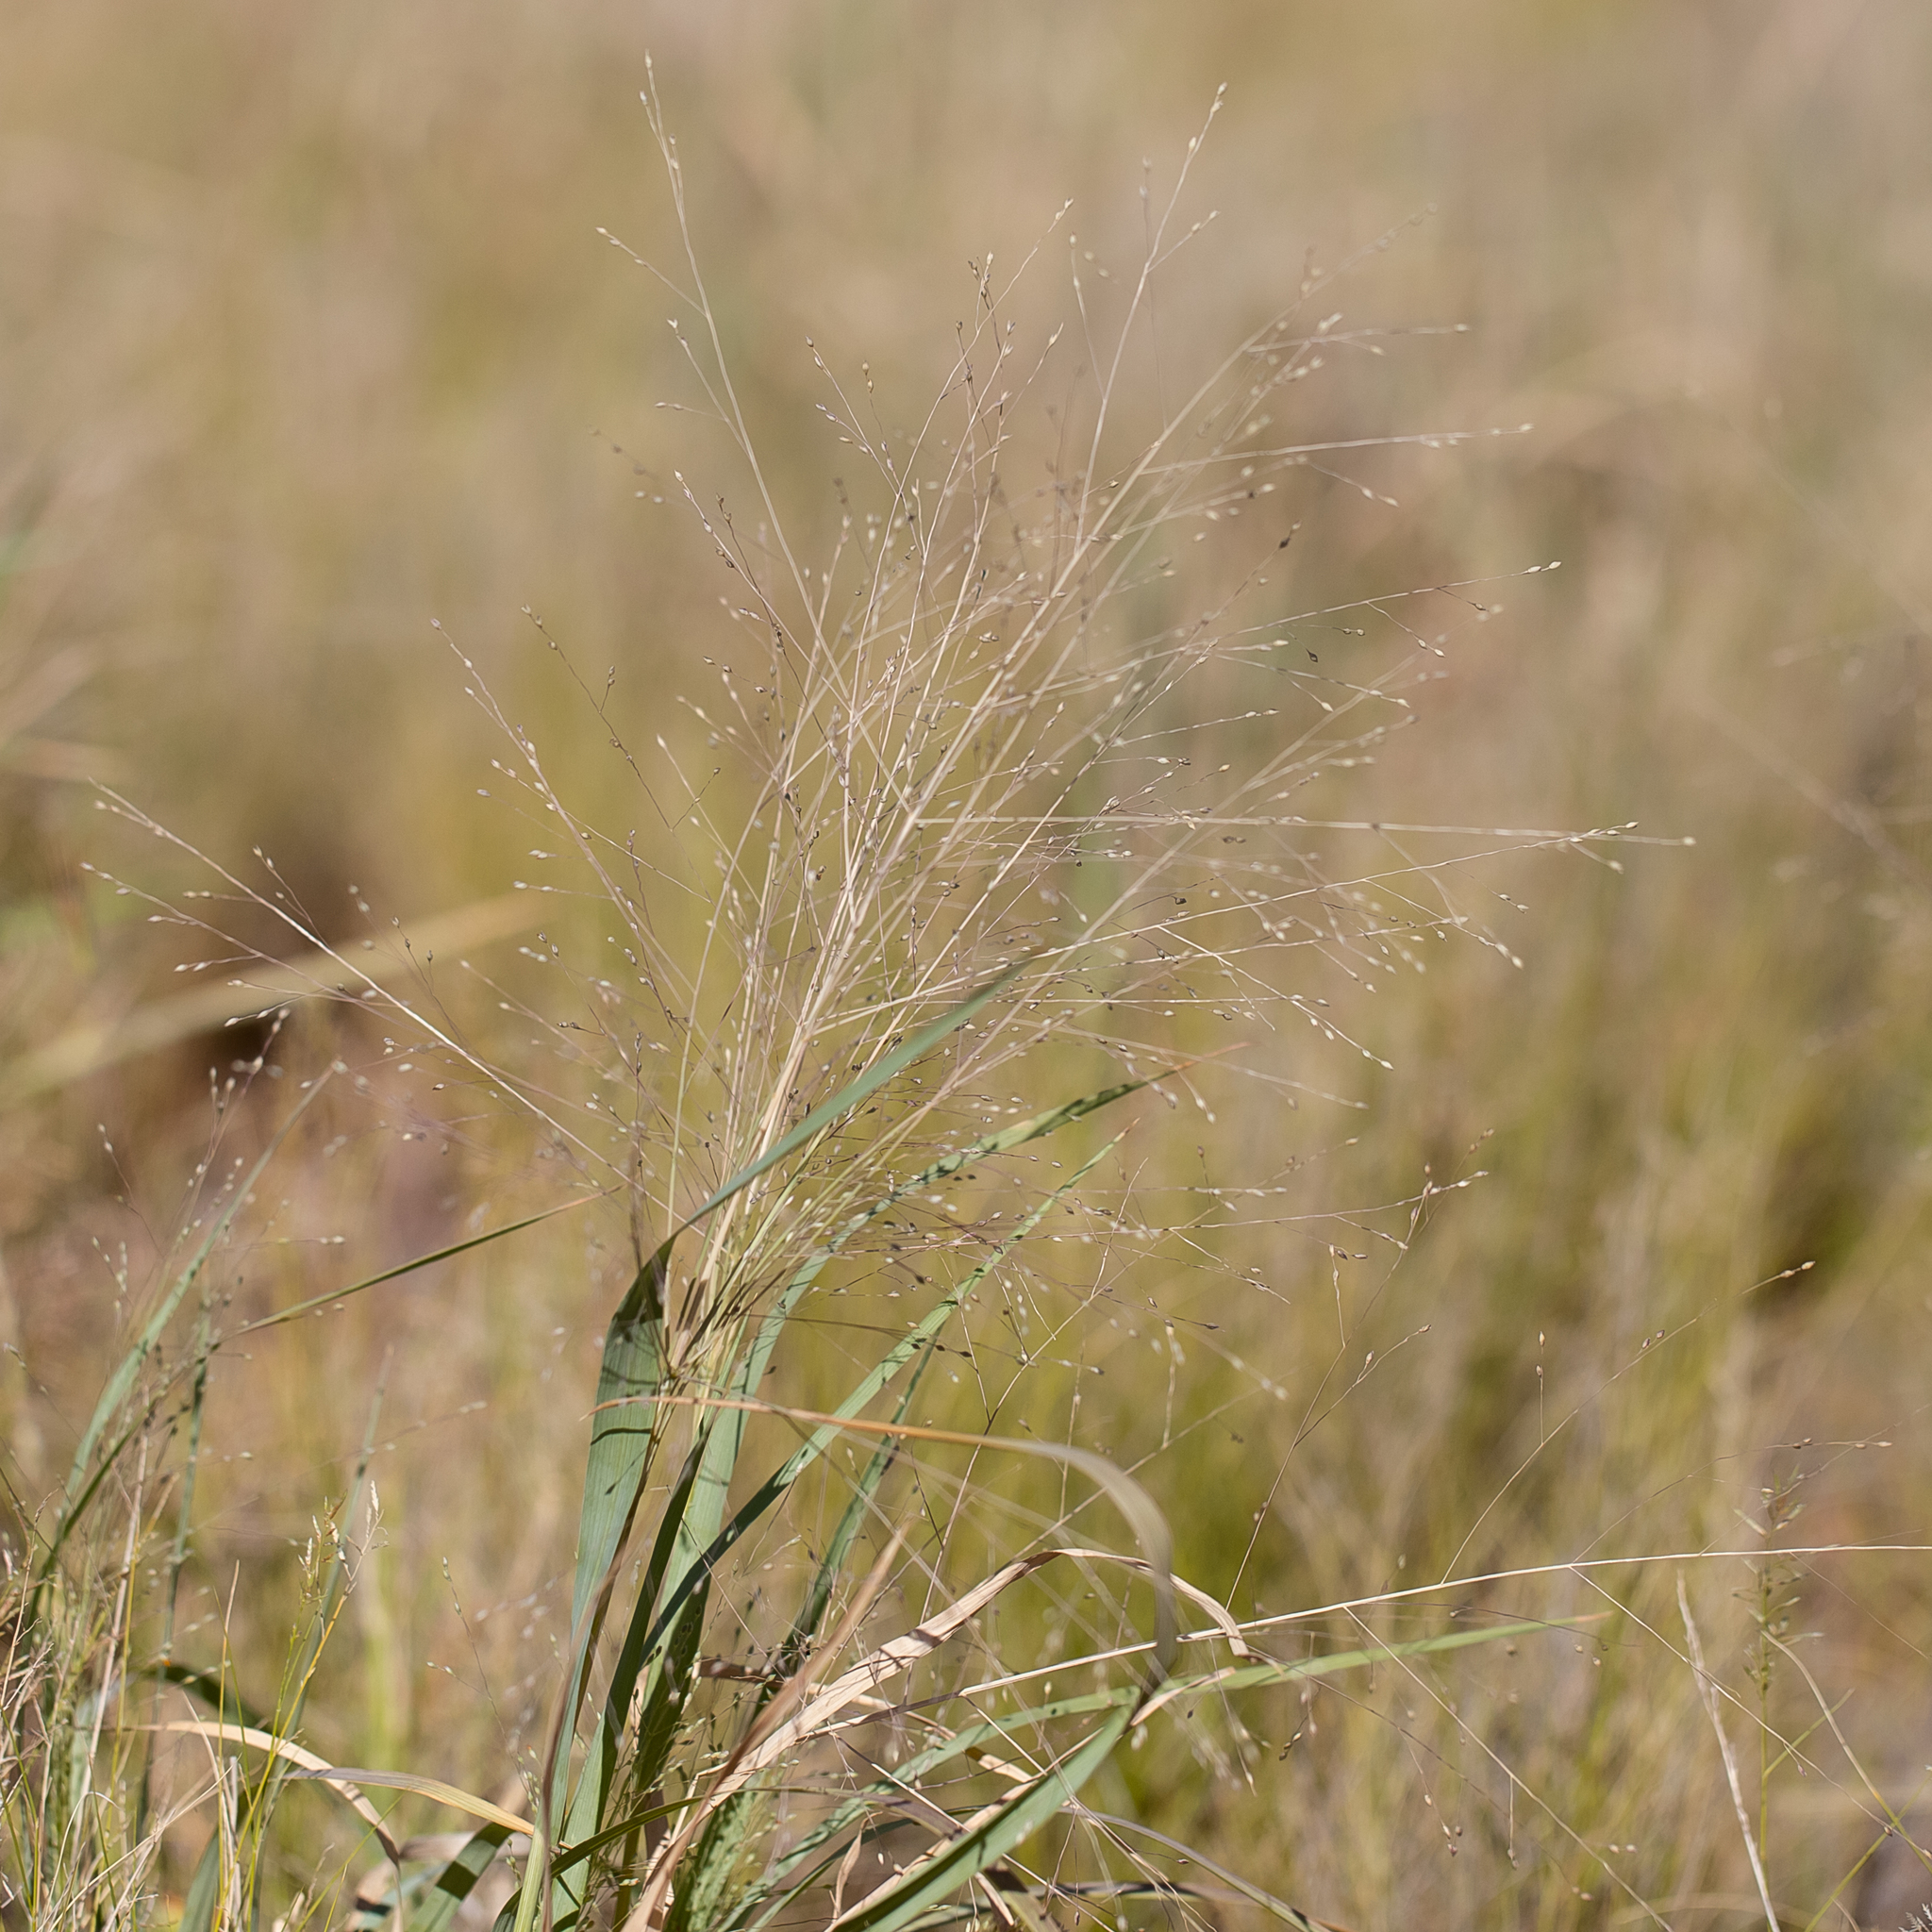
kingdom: Plantae
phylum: Tracheophyta
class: Liliopsida
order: Poales
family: Poaceae
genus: Panicum
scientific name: Panicum decompositum
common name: Australian millet
